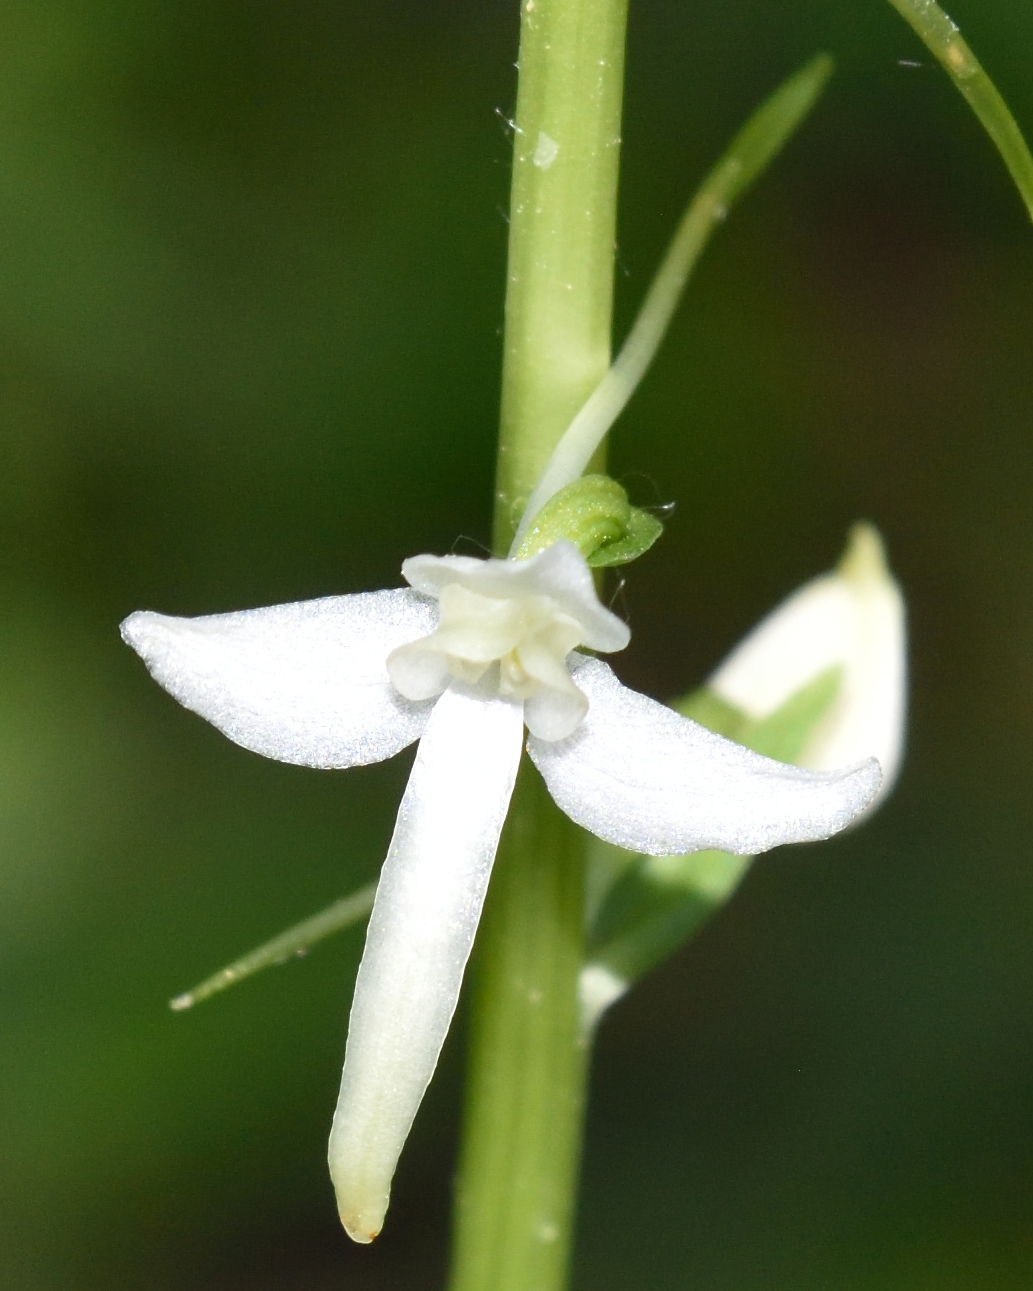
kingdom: Plantae
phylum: Tracheophyta
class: Liliopsida
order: Asparagales
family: Orchidaceae
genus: Platanthera
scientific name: Platanthera bifolia
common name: Lesser butterfly-orchid
